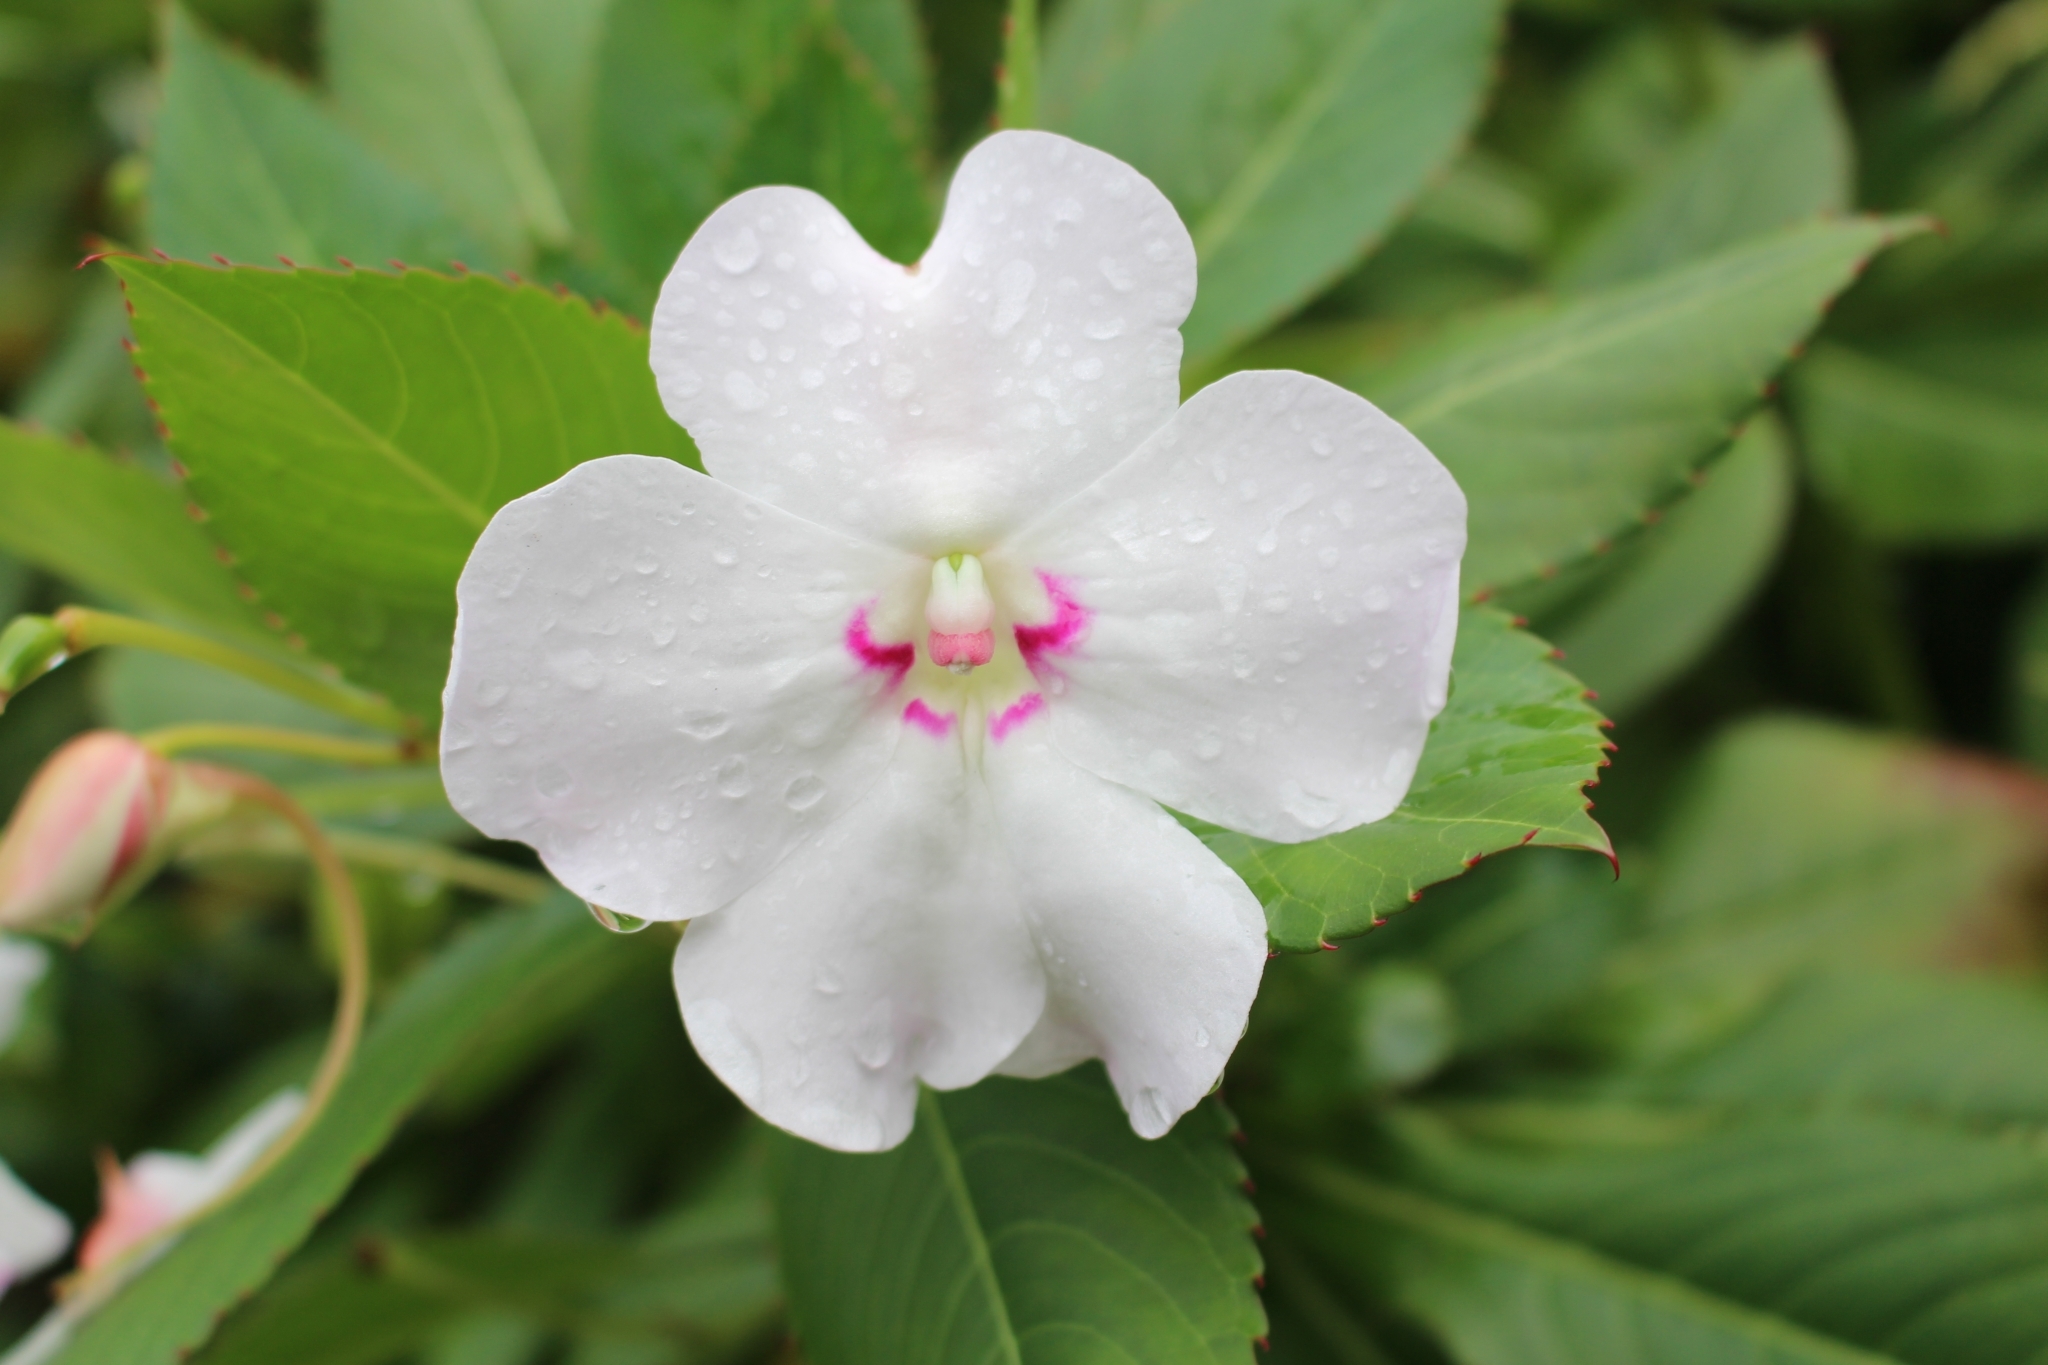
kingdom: Plantae
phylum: Tracheophyta
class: Magnoliopsida
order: Ericales
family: Balsaminaceae
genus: Impatiens
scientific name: Impatiens sodenii
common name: Oliver's touch-me-not
